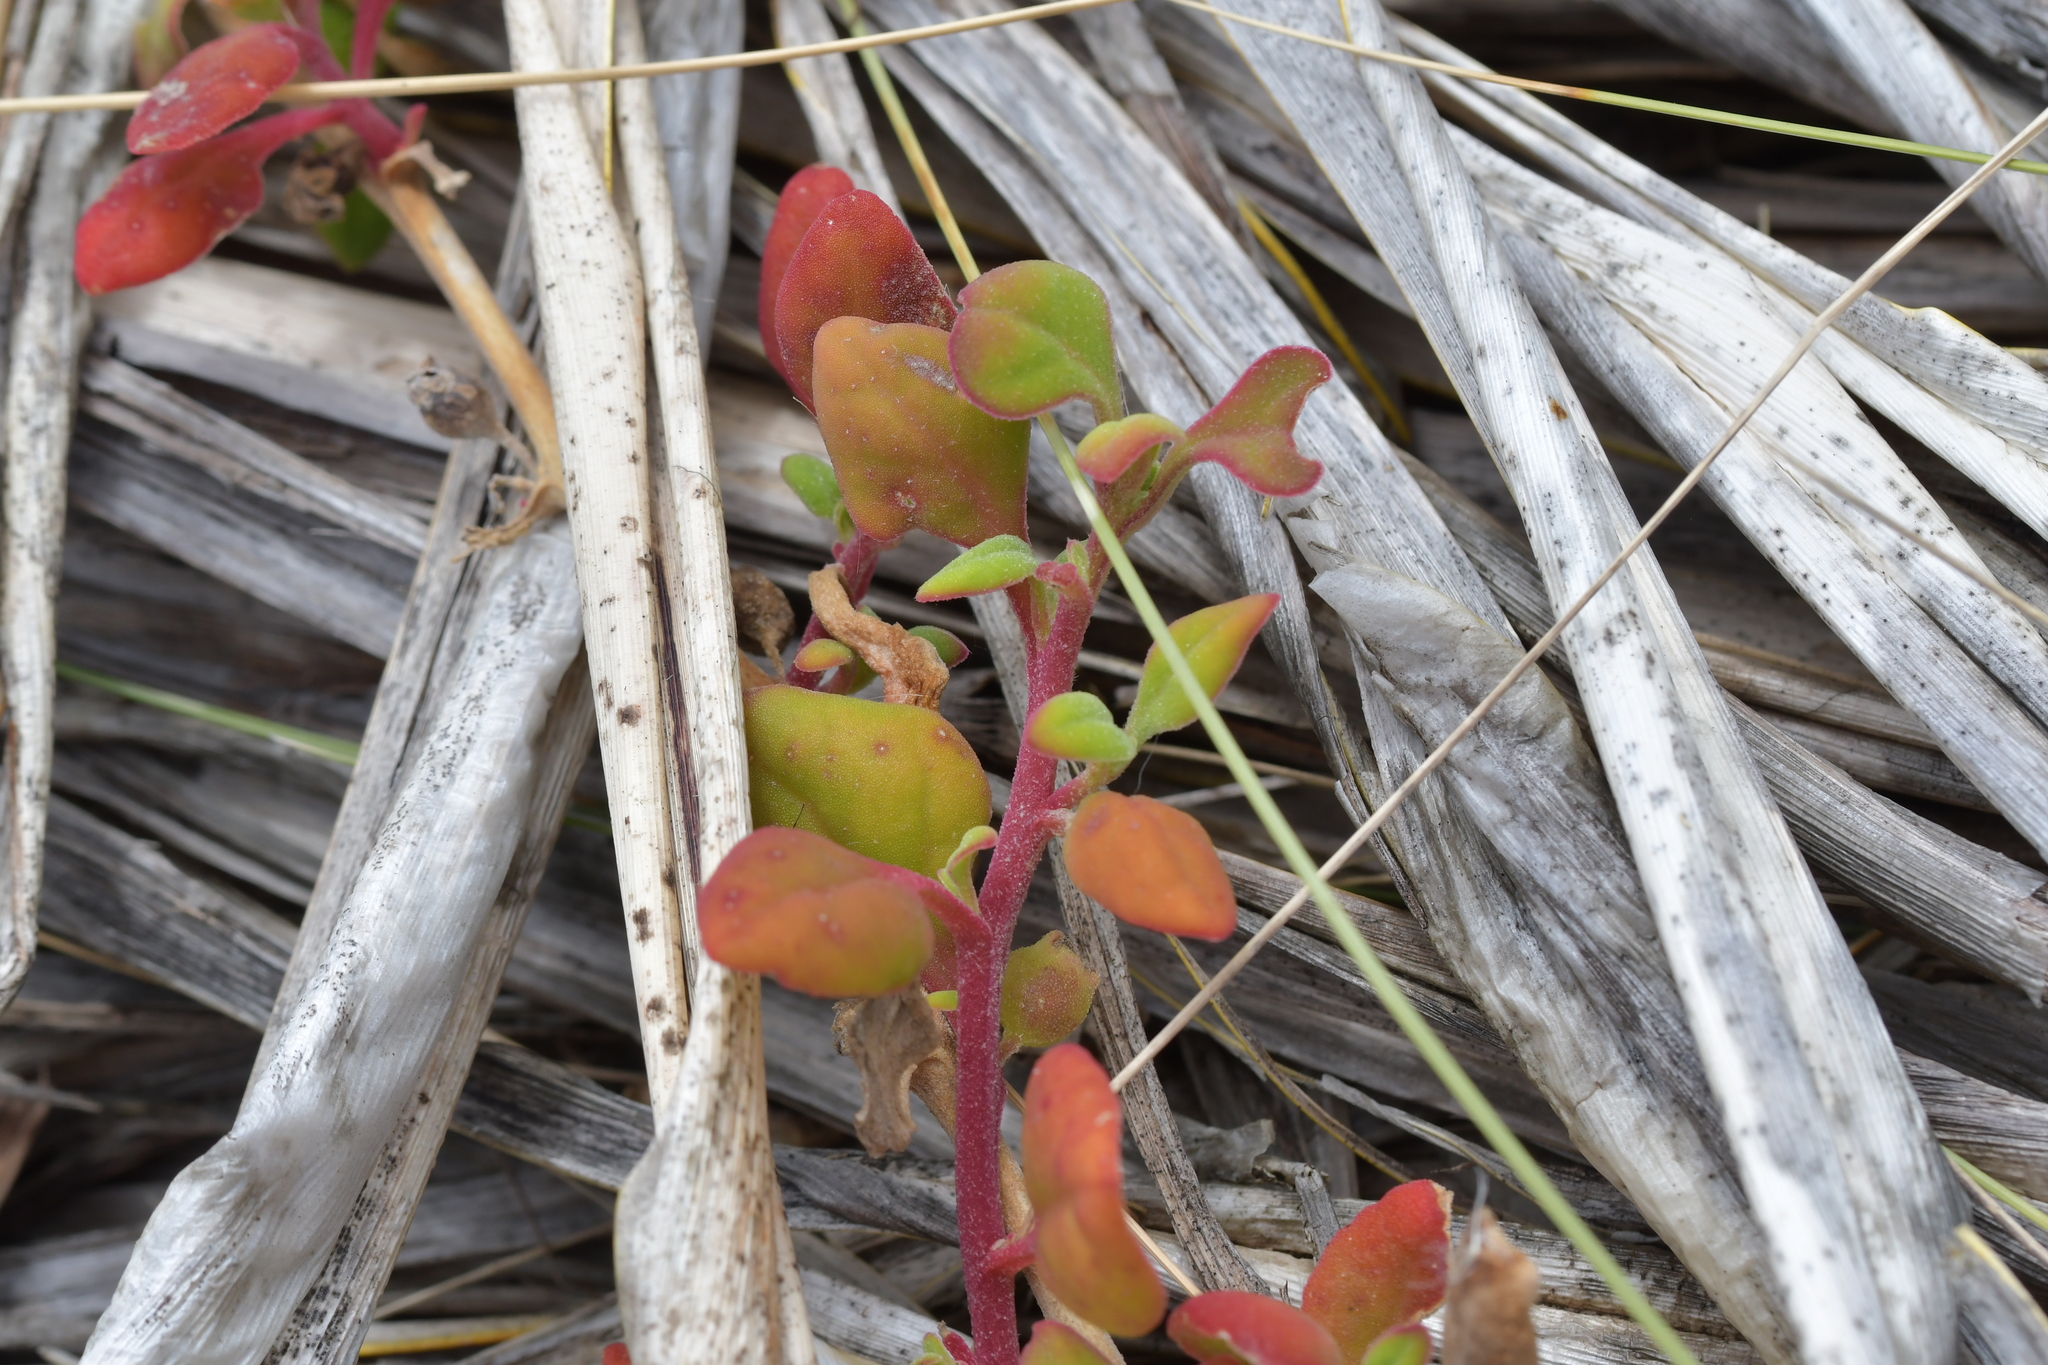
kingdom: Plantae
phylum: Tracheophyta
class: Magnoliopsida
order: Caryophyllales
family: Aizoaceae
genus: Tetragonia
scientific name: Tetragonia implexicoma
